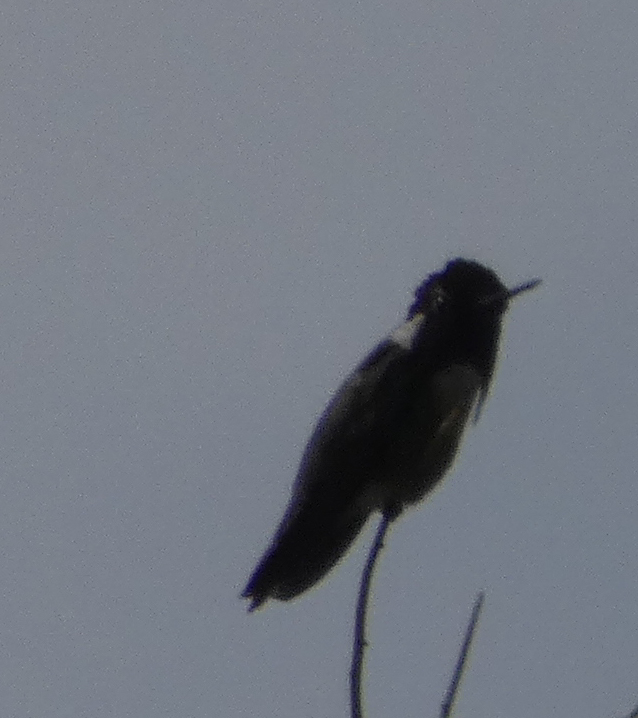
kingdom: Animalia
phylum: Chordata
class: Aves
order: Apodiformes
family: Trochilidae
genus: Calypte
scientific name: Calypte costae
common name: Costa's hummingbird
